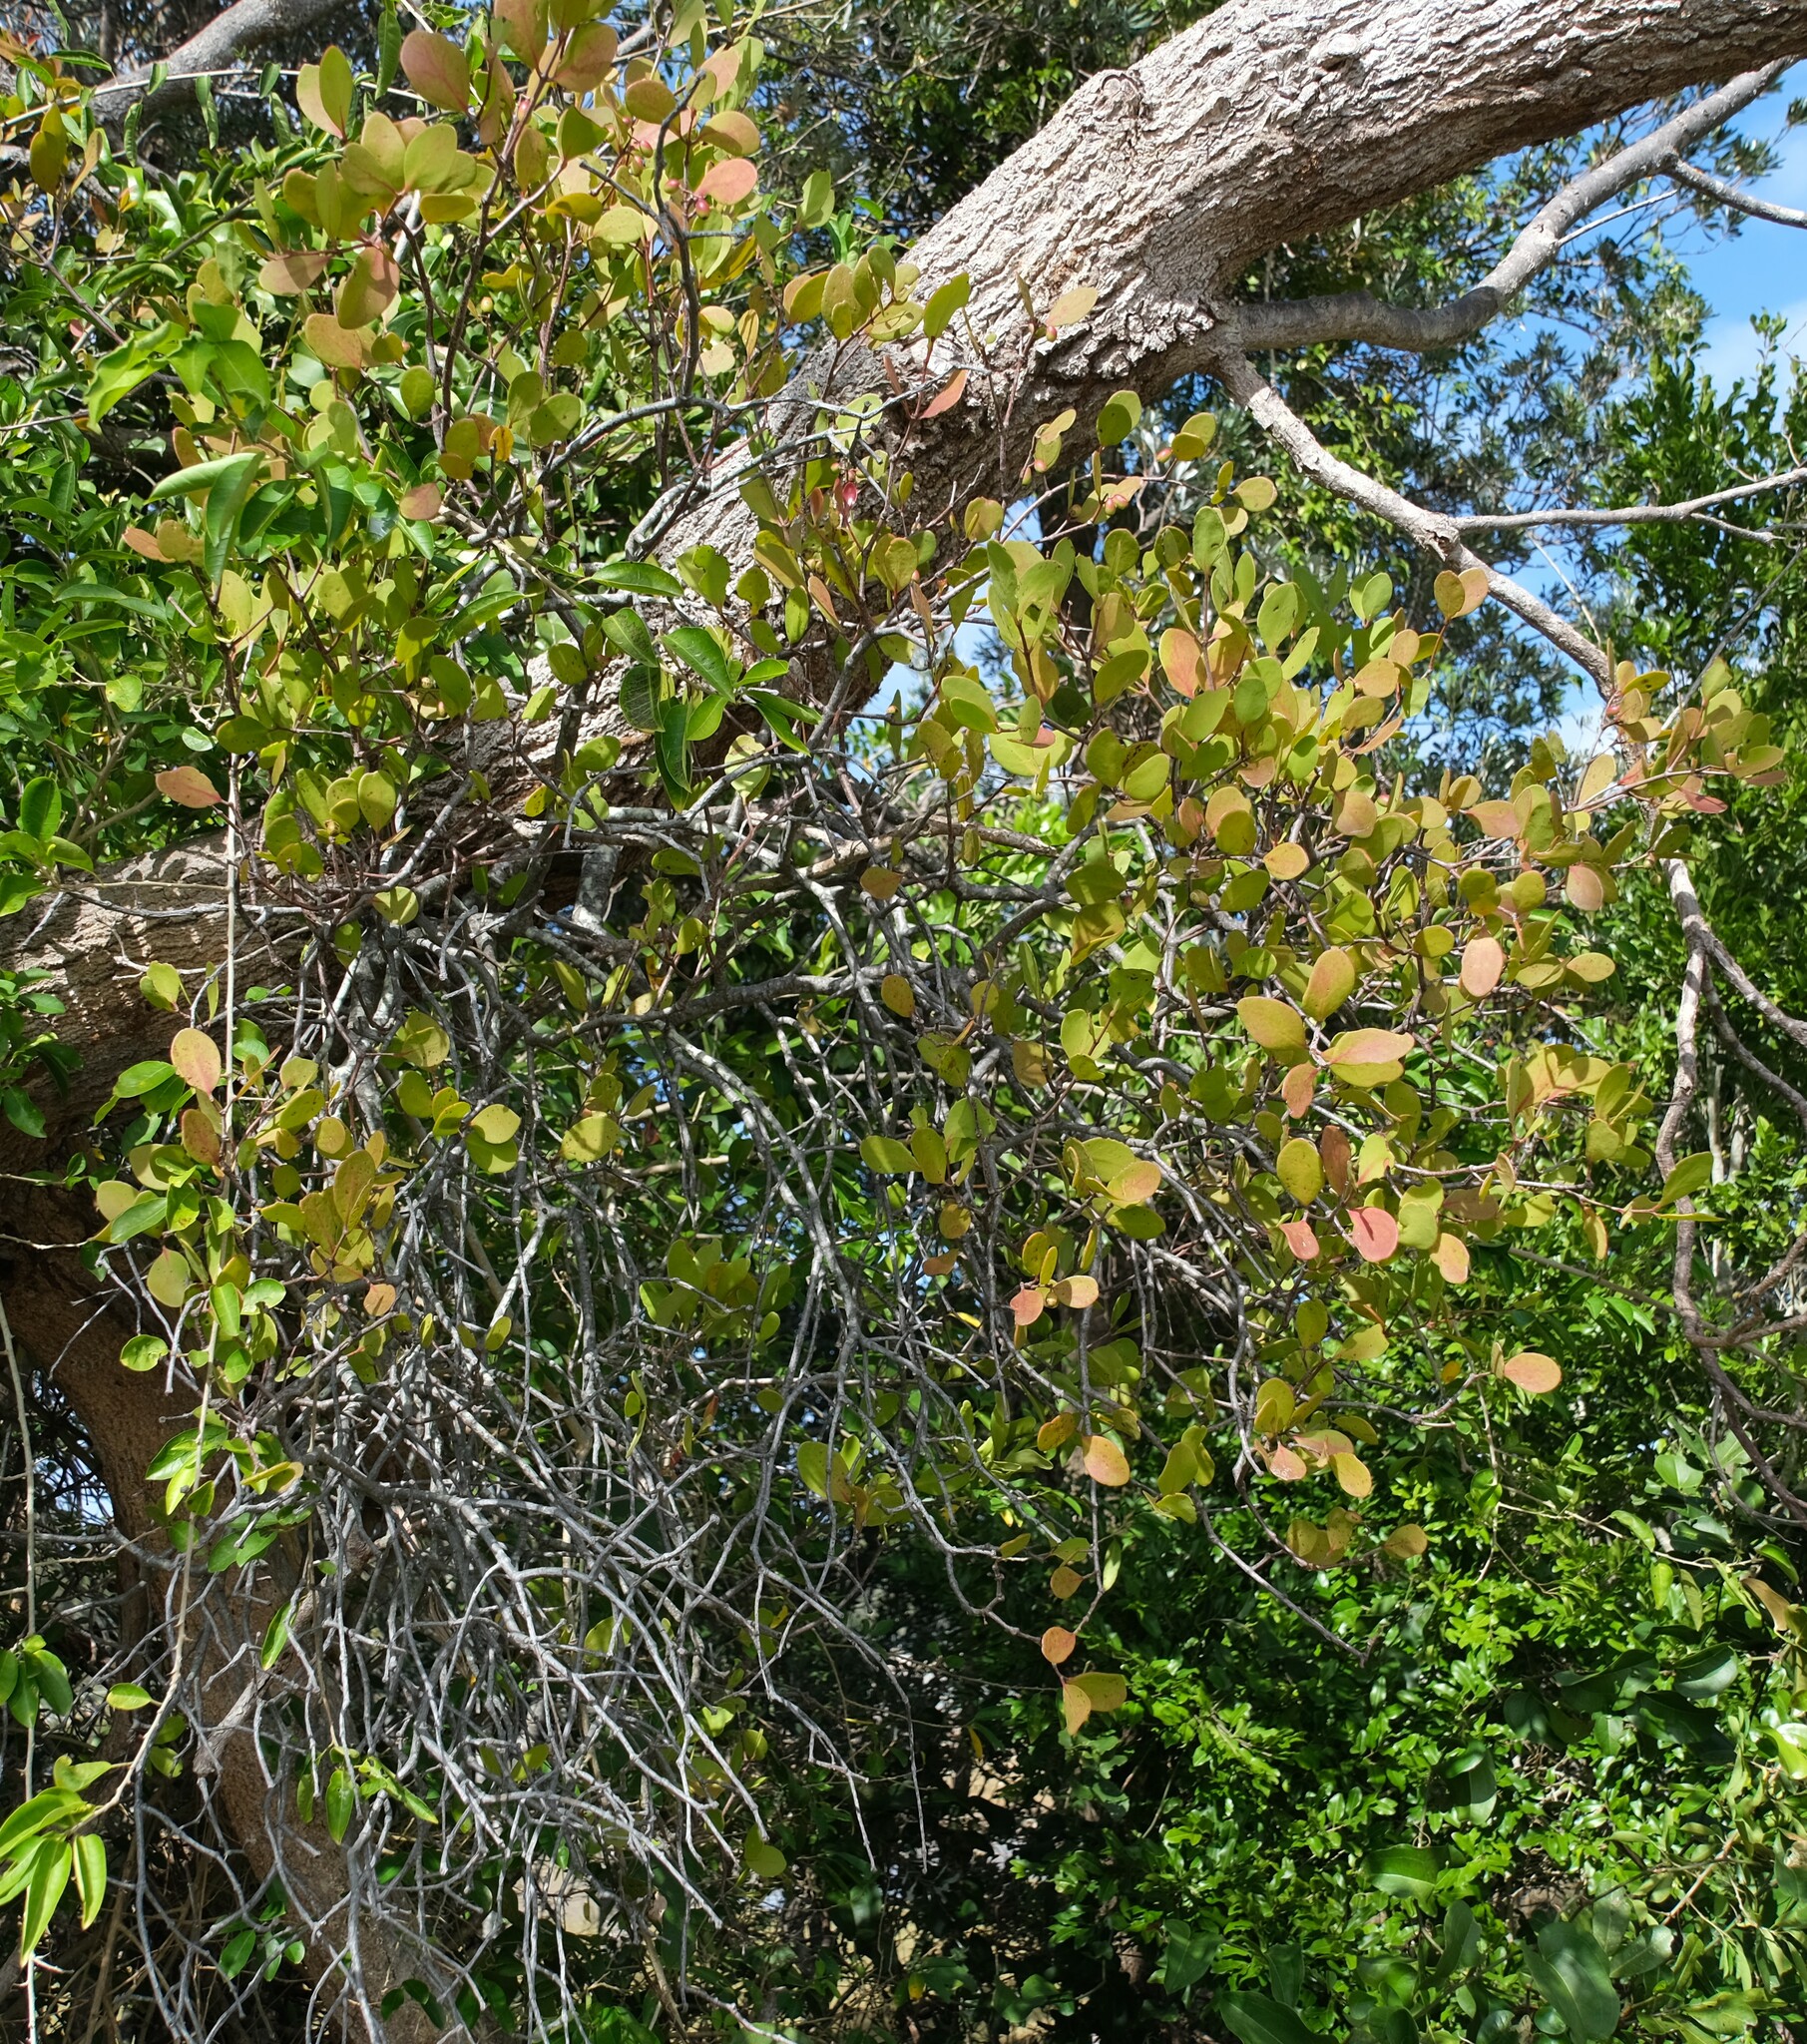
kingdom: Plantae
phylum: Tracheophyta
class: Magnoliopsida
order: Santalales
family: Loranthaceae
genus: Muellerina
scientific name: Muellerina celastroides
